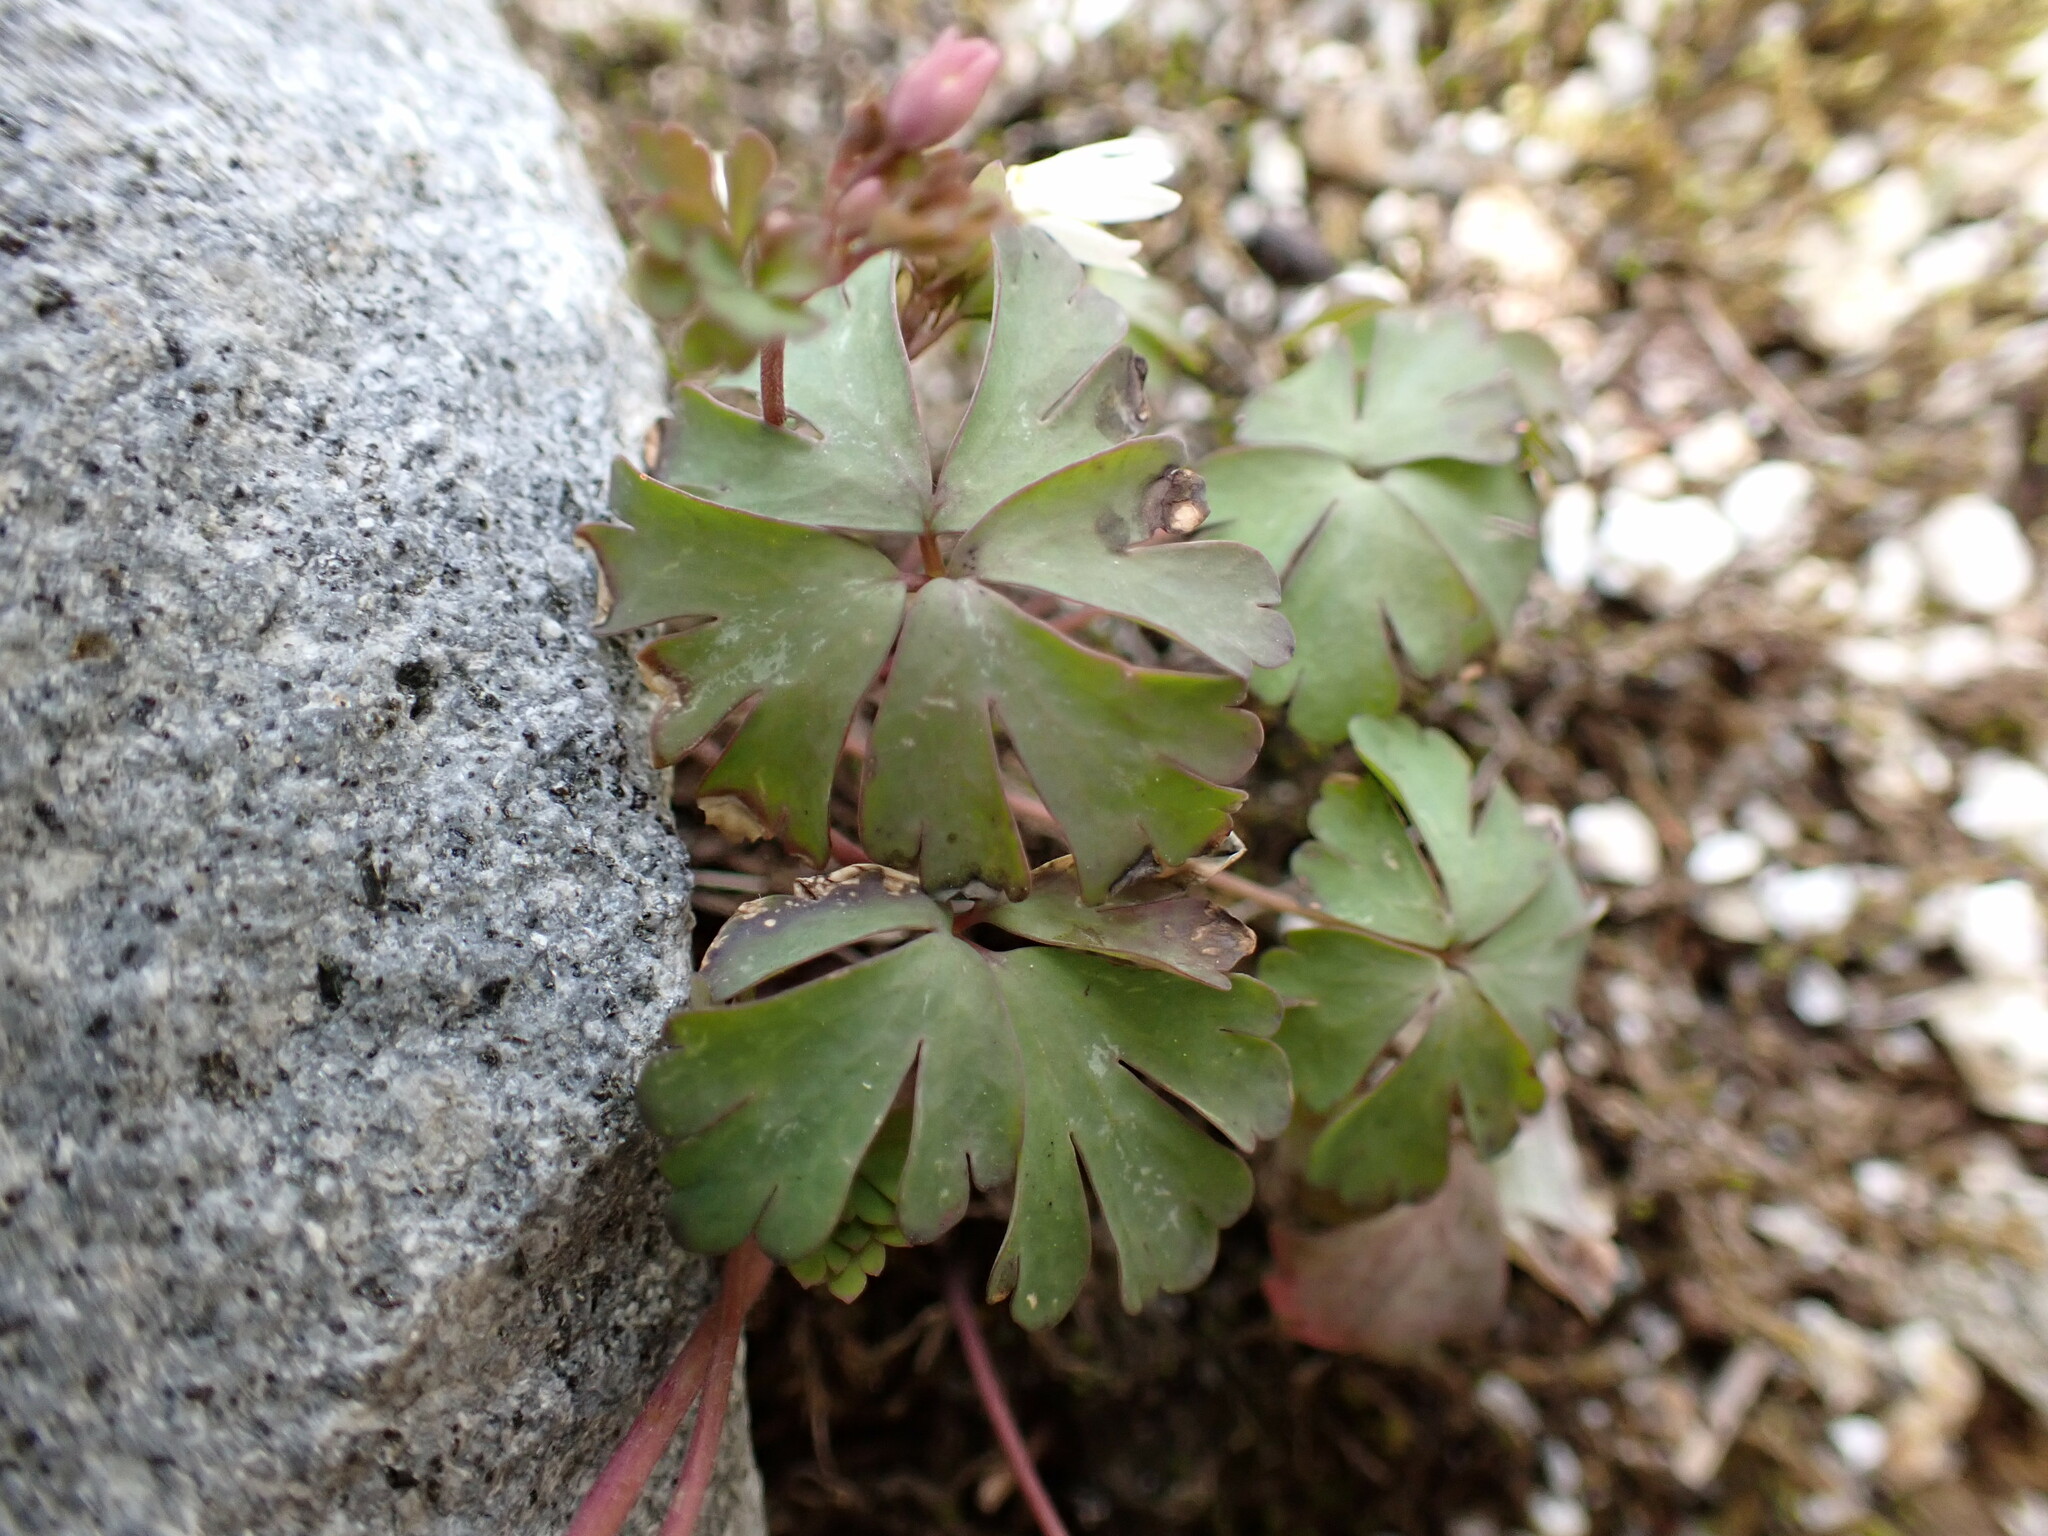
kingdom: Plantae
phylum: Tracheophyta
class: Magnoliopsida
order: Ranunculales
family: Ranunculaceae
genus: Semiaquilegia
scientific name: Semiaquilegia adoxoides
